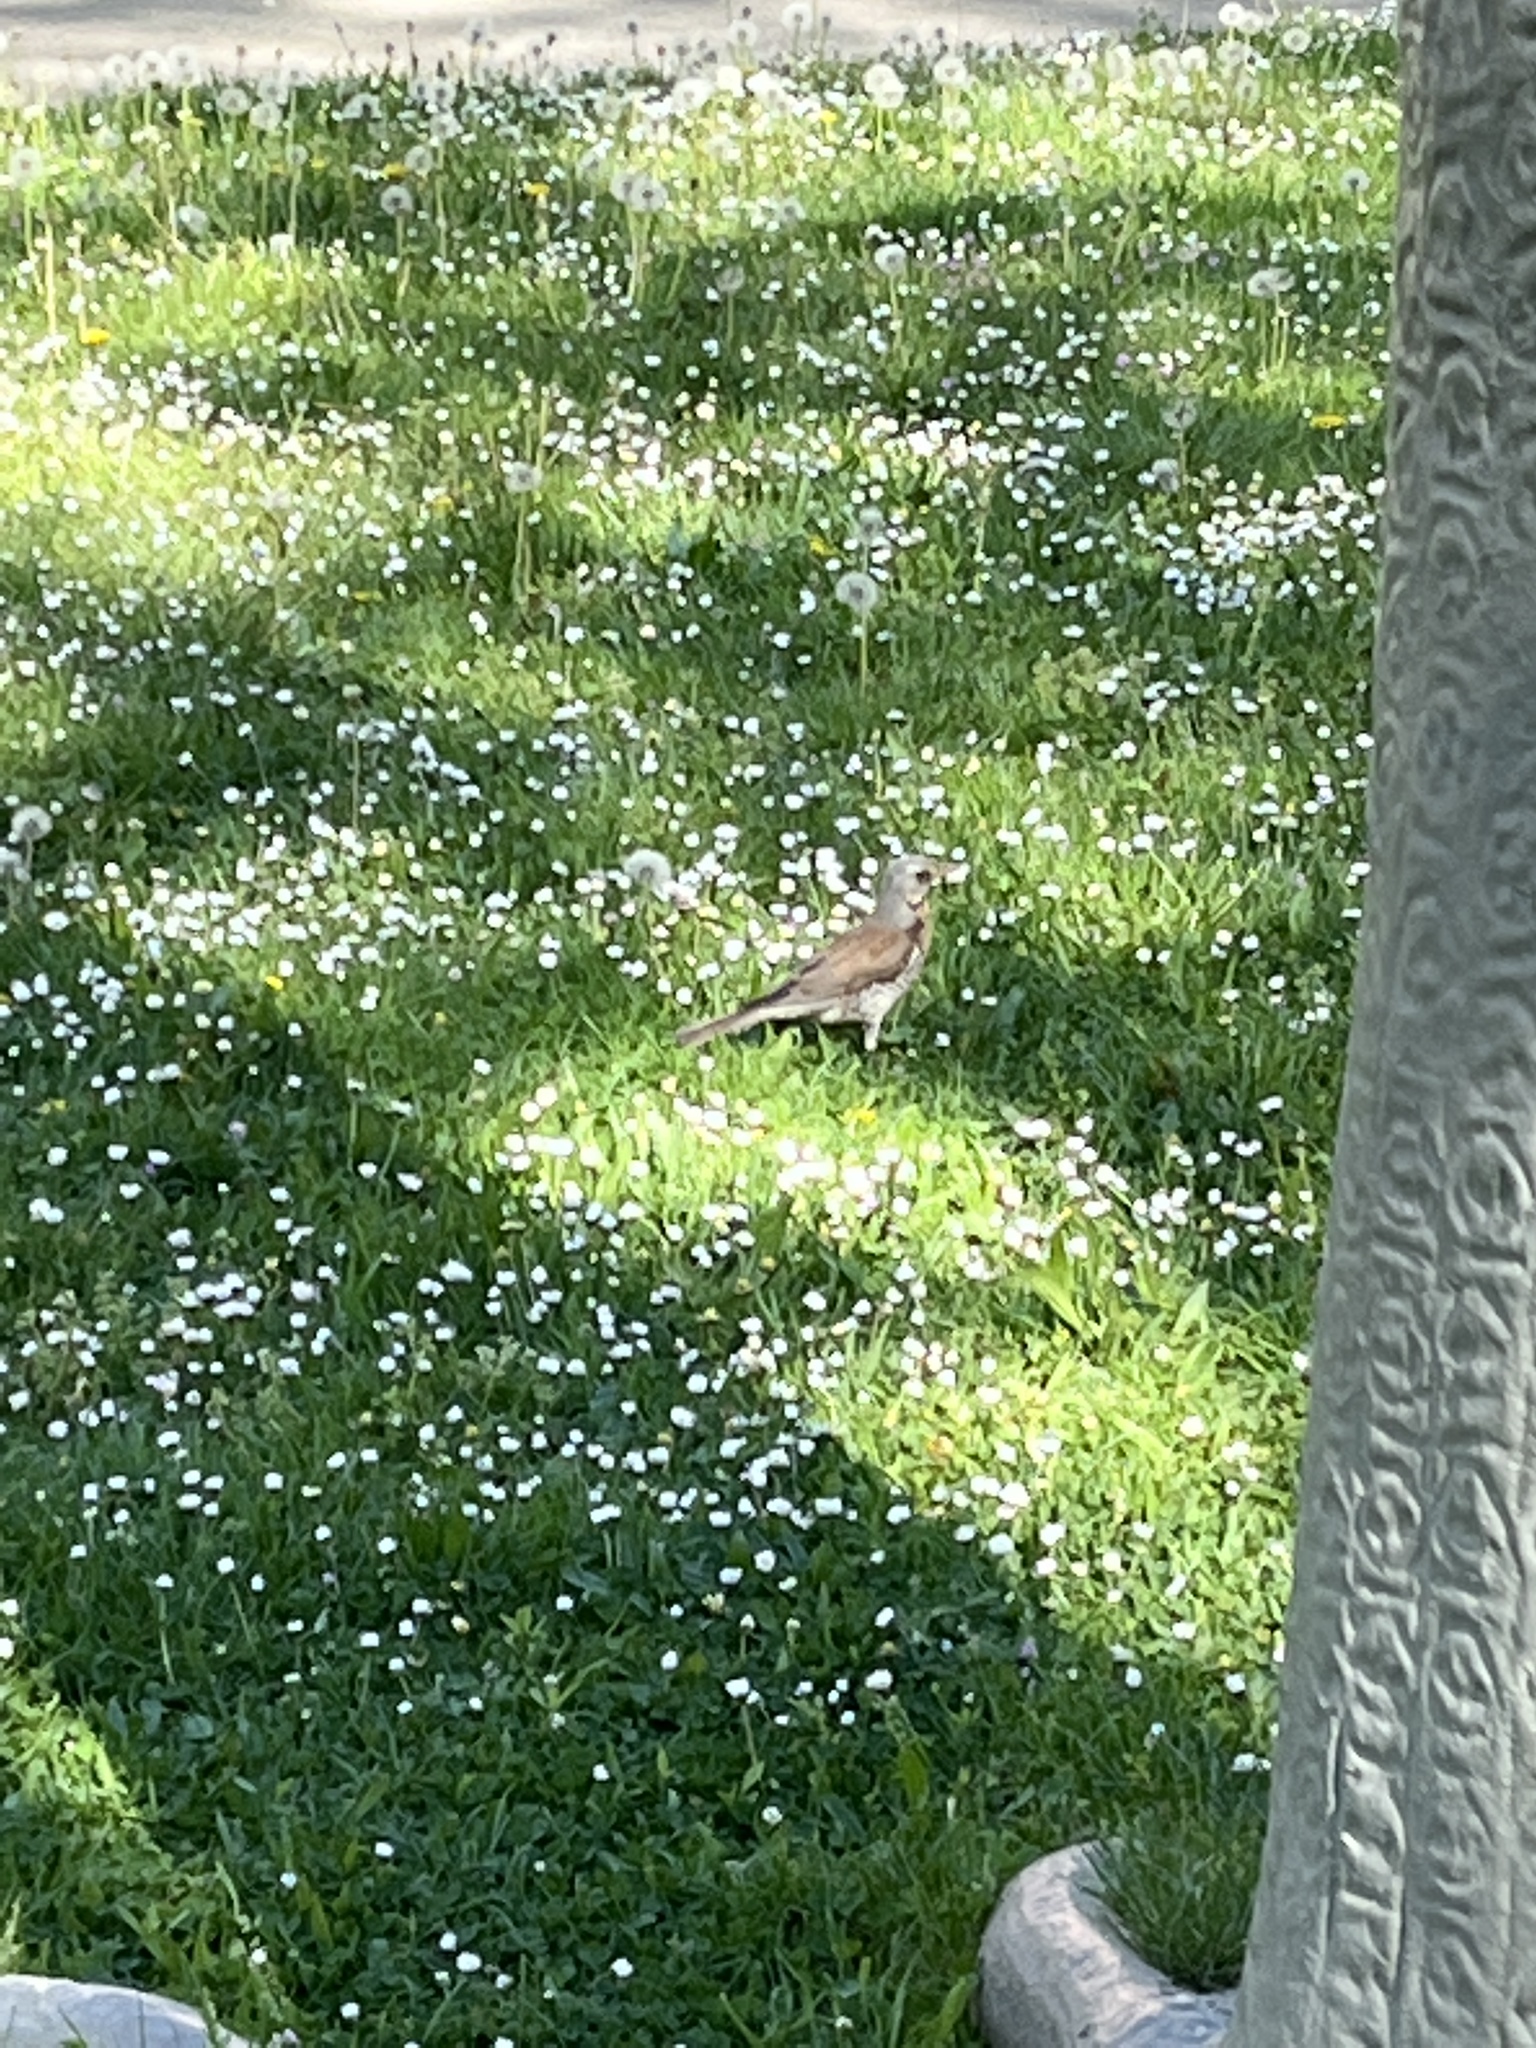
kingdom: Animalia
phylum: Chordata
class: Aves
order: Passeriformes
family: Turdidae
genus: Turdus
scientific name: Turdus pilaris
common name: Fieldfare
